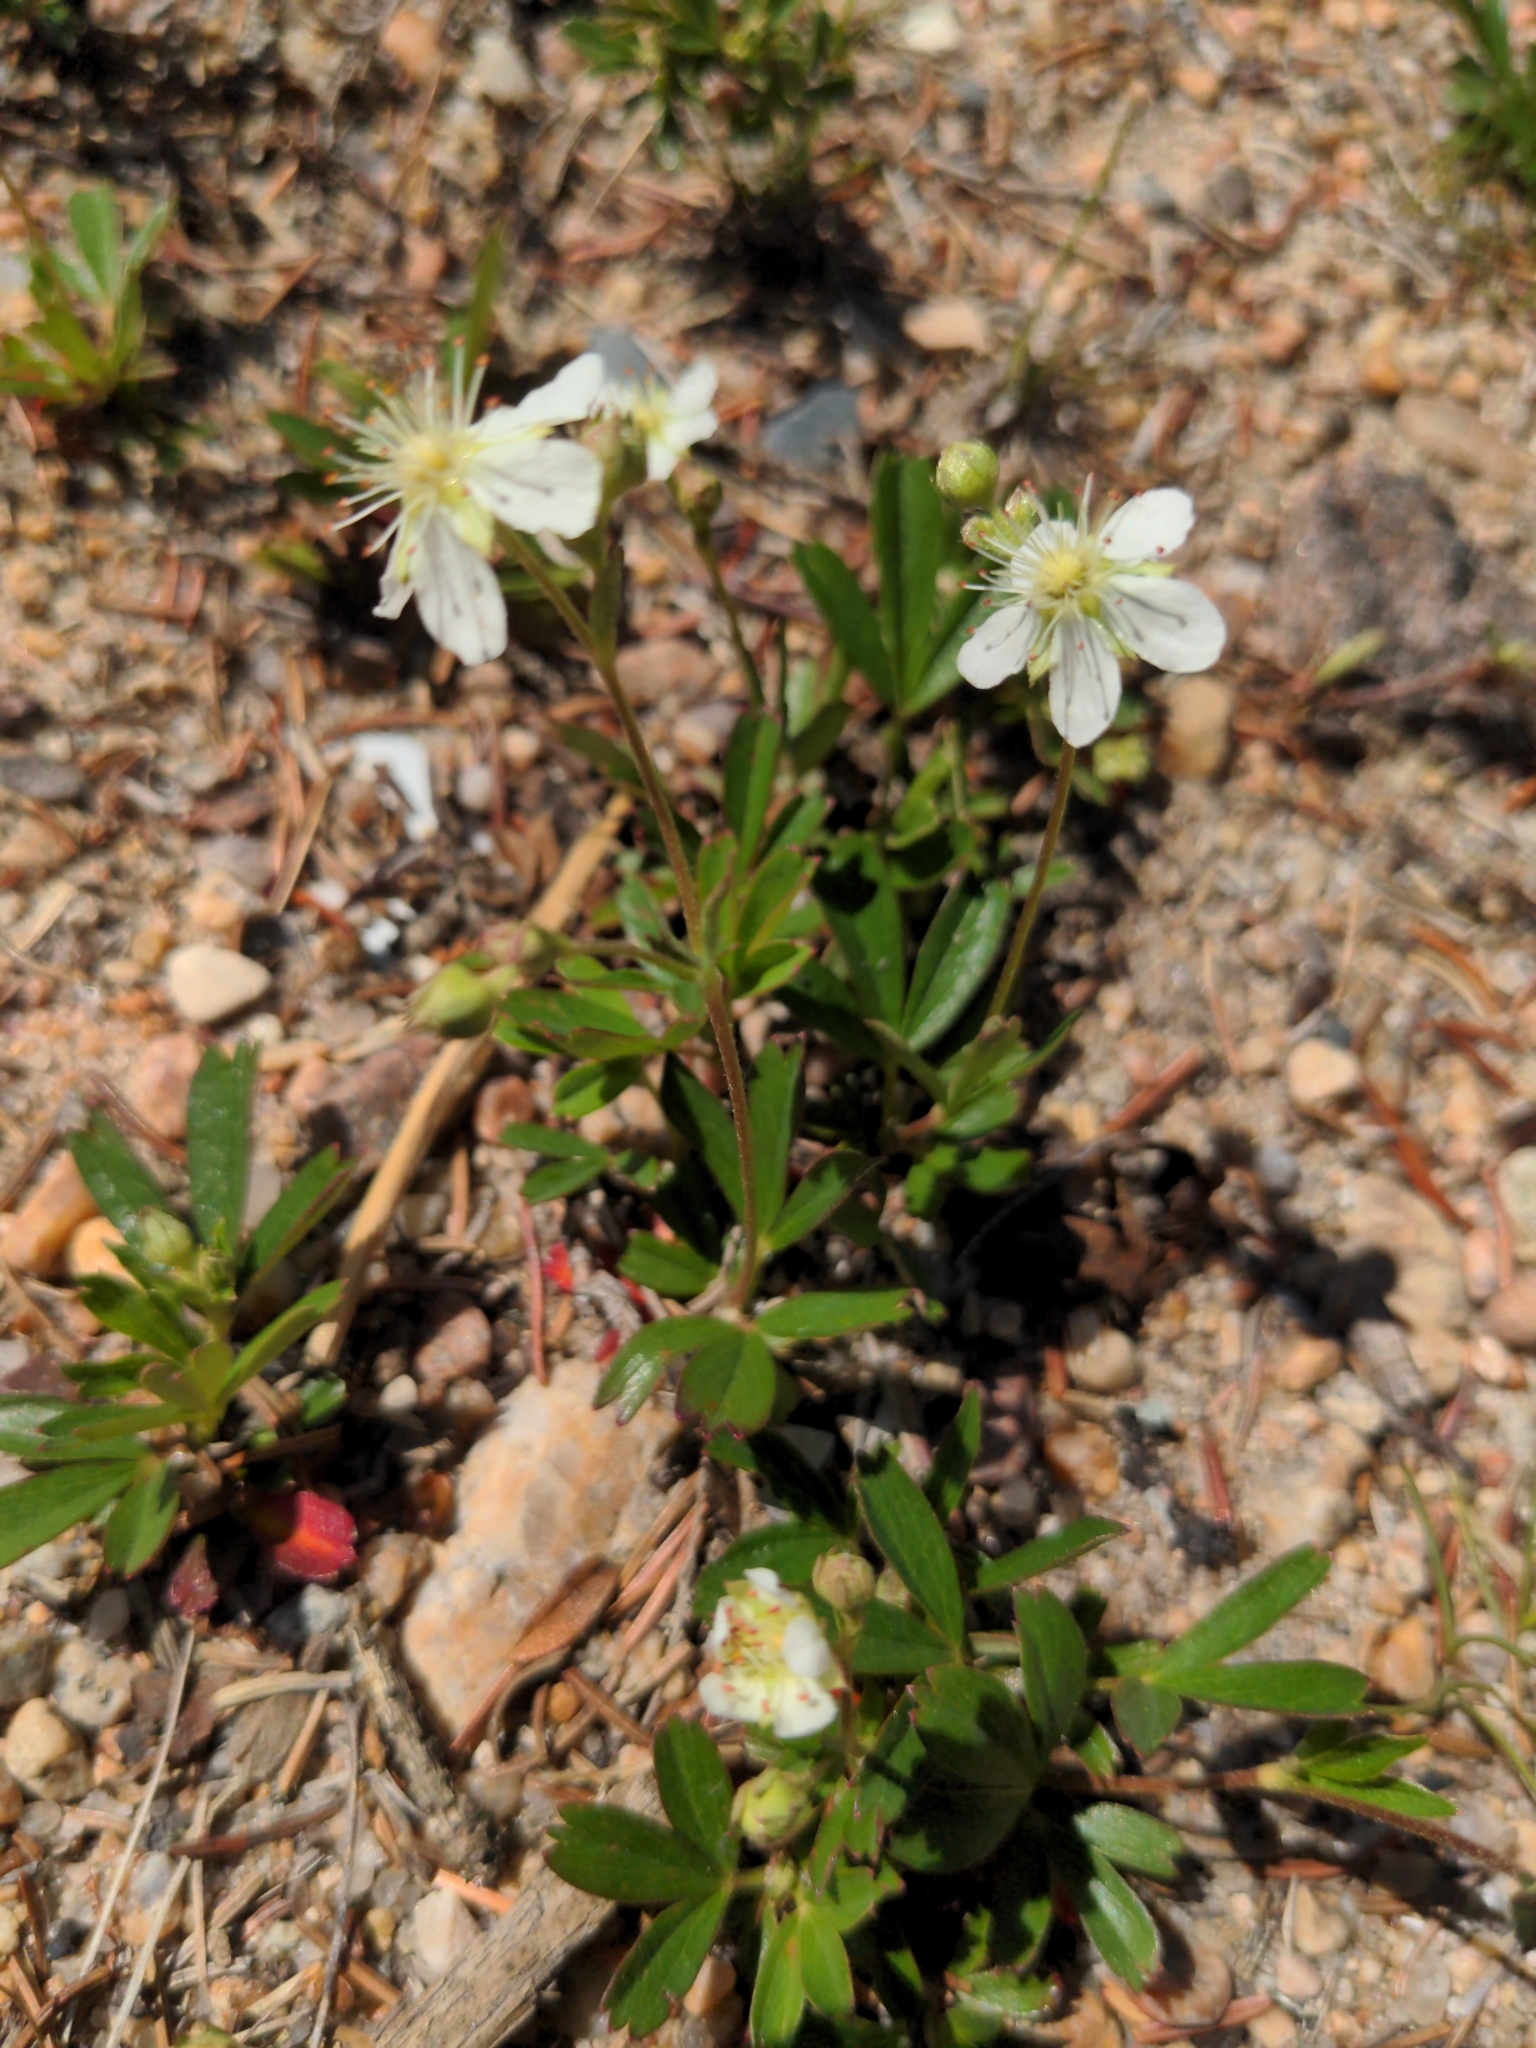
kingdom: Plantae
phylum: Tracheophyta
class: Magnoliopsida
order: Rosales
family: Rosaceae
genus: Sibbaldia
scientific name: Sibbaldia tridentata
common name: Three-toothed cinquefoil
